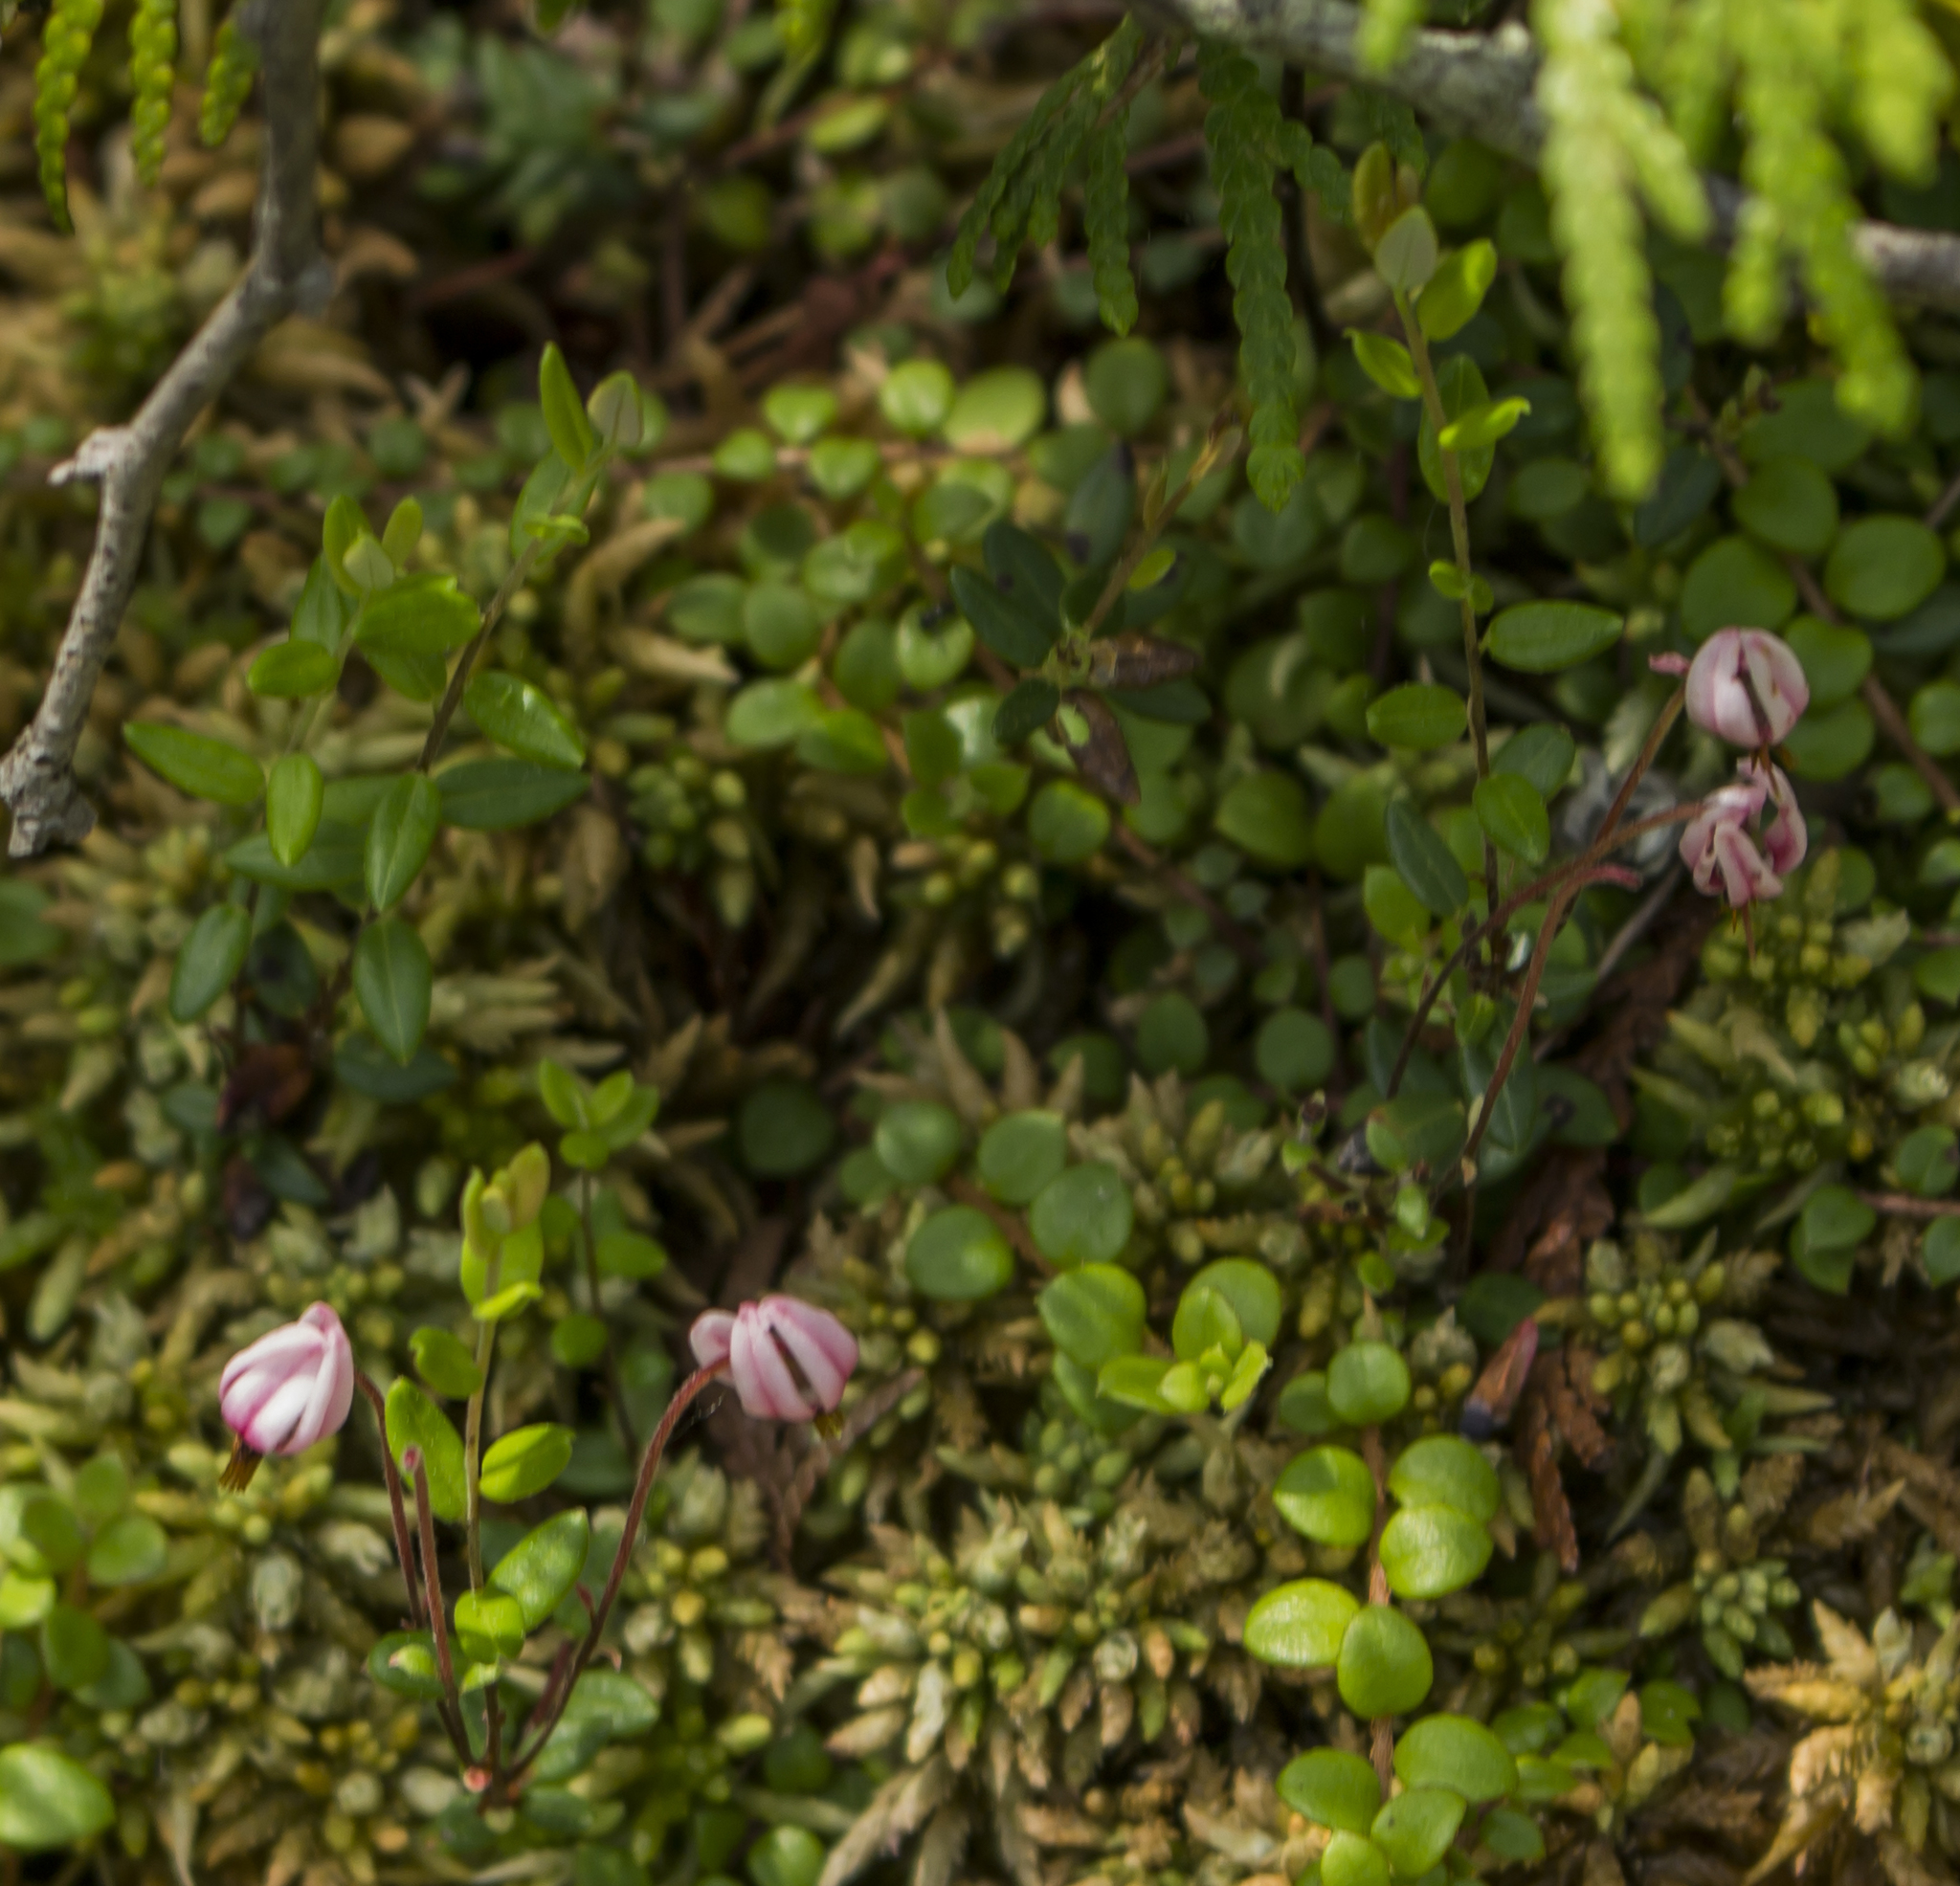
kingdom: Plantae
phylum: Tracheophyta
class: Magnoliopsida
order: Ericales
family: Ericaceae
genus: Vaccinium
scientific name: Vaccinium oxycoccos
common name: Cranberry
